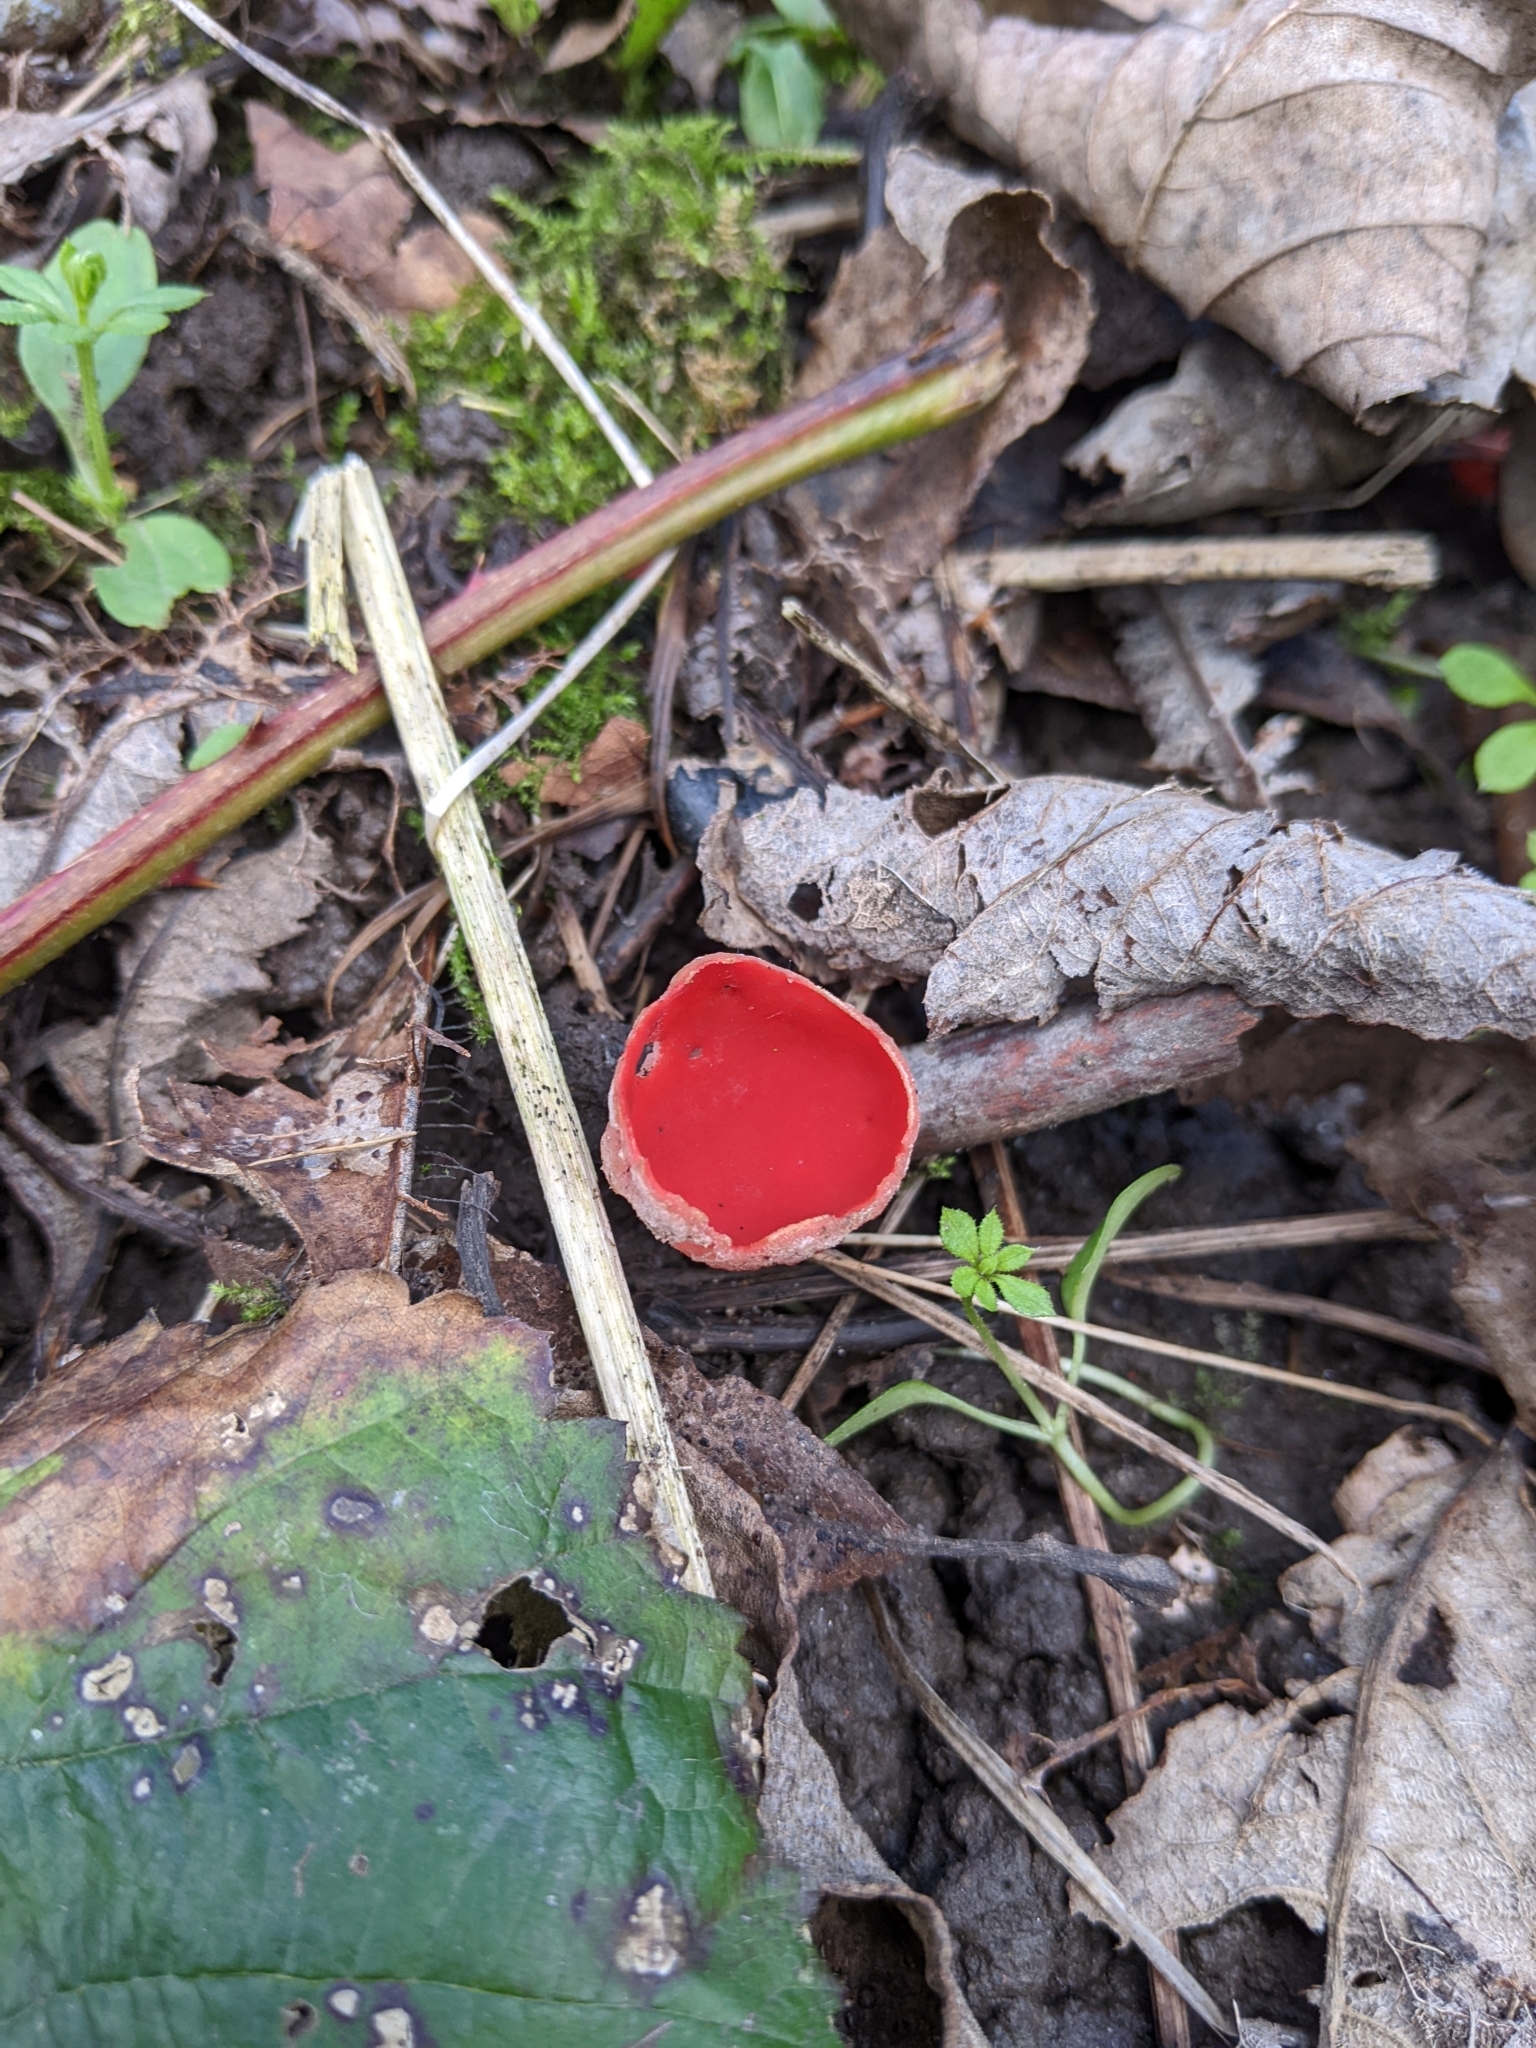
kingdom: Fungi
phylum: Ascomycota
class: Pezizomycetes
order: Pezizales
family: Sarcoscyphaceae
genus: Sarcoscypha
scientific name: Sarcoscypha
